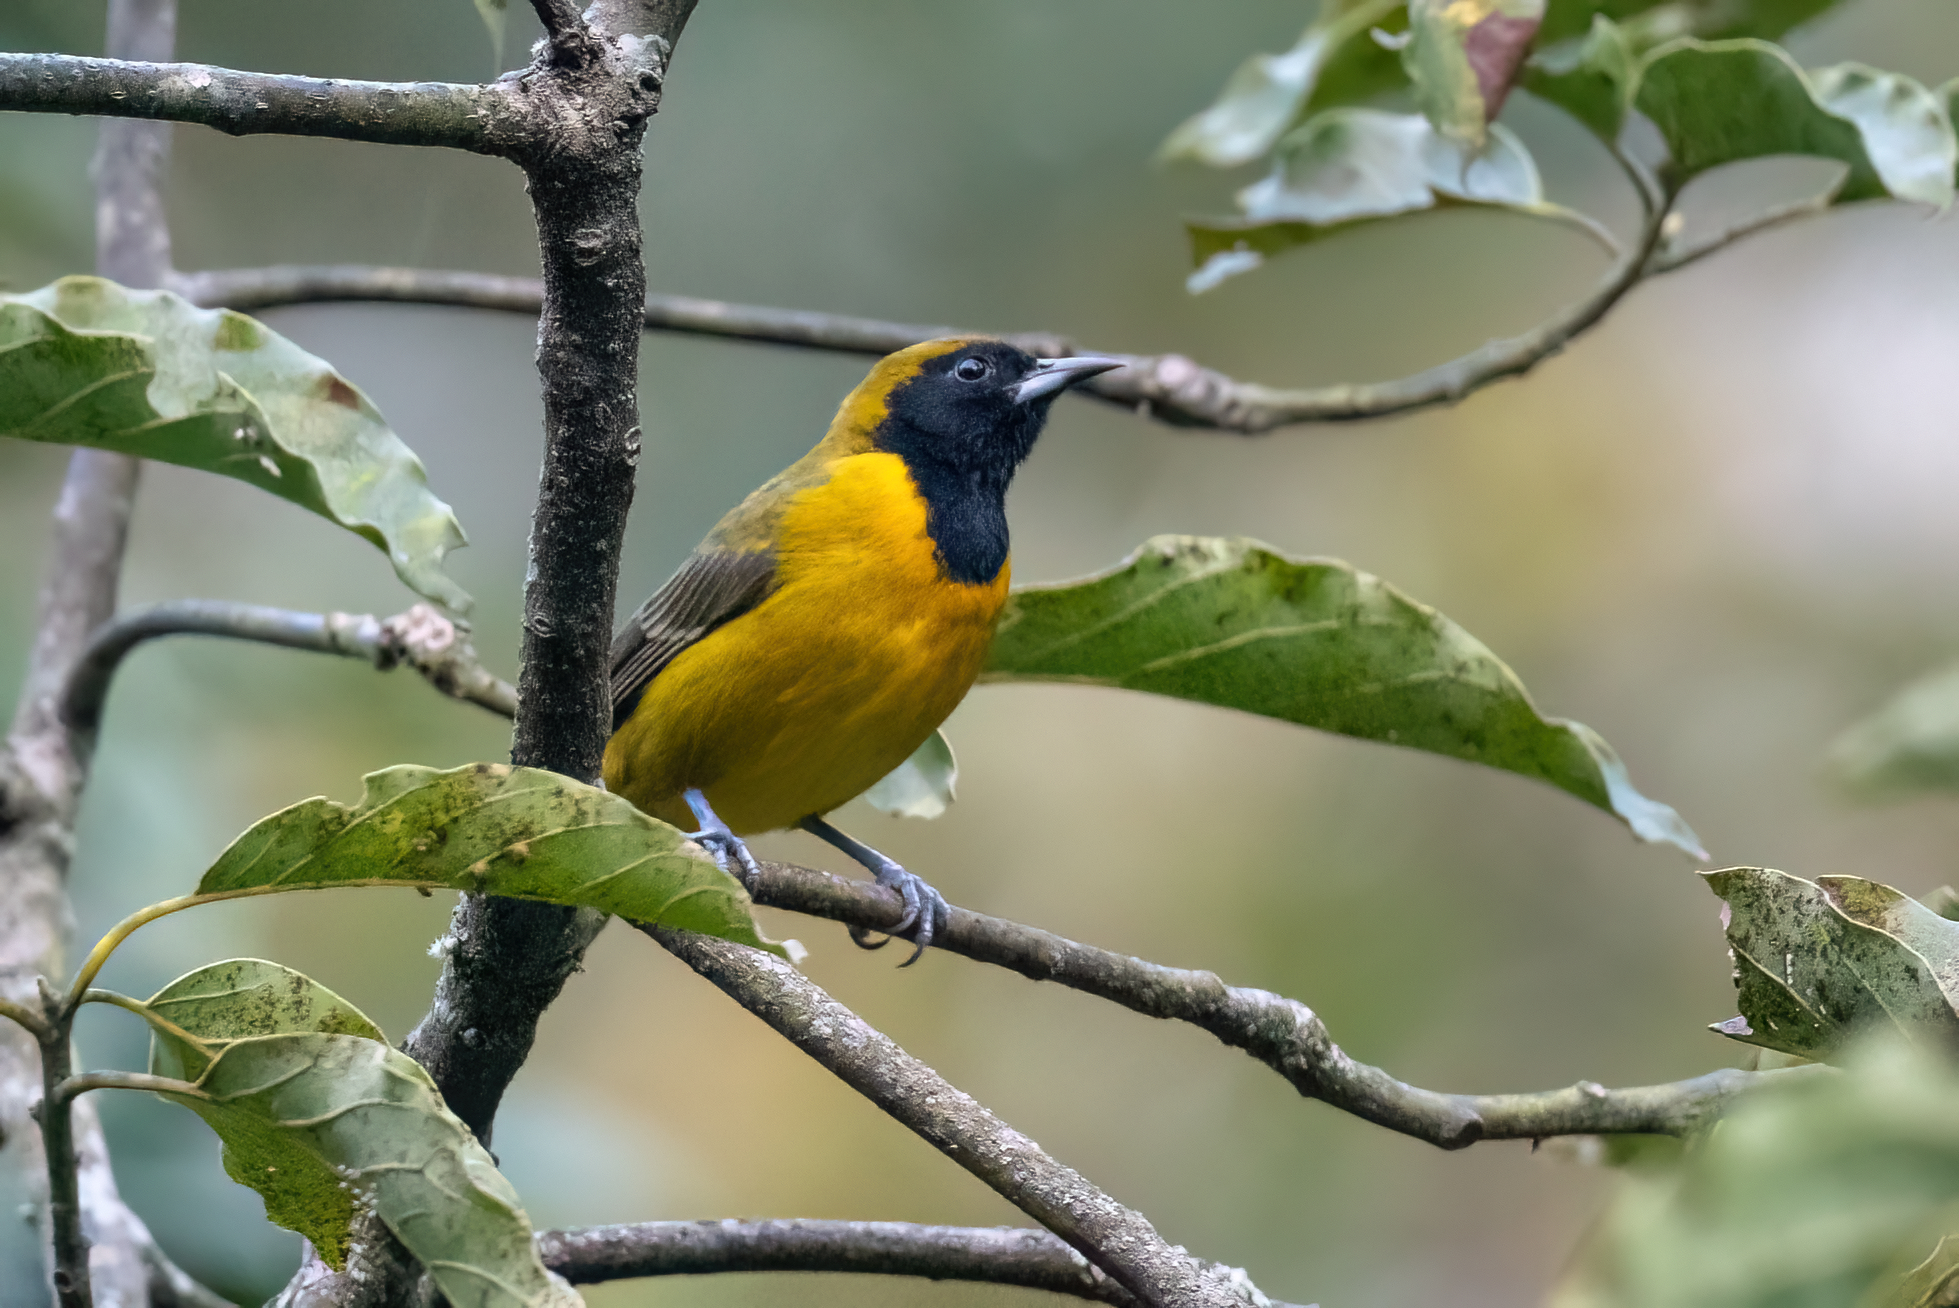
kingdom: Animalia
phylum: Chordata
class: Aves
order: Passeriformes
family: Icteridae
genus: Icterus
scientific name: Icterus maculialatus
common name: Bar-winged oriole
